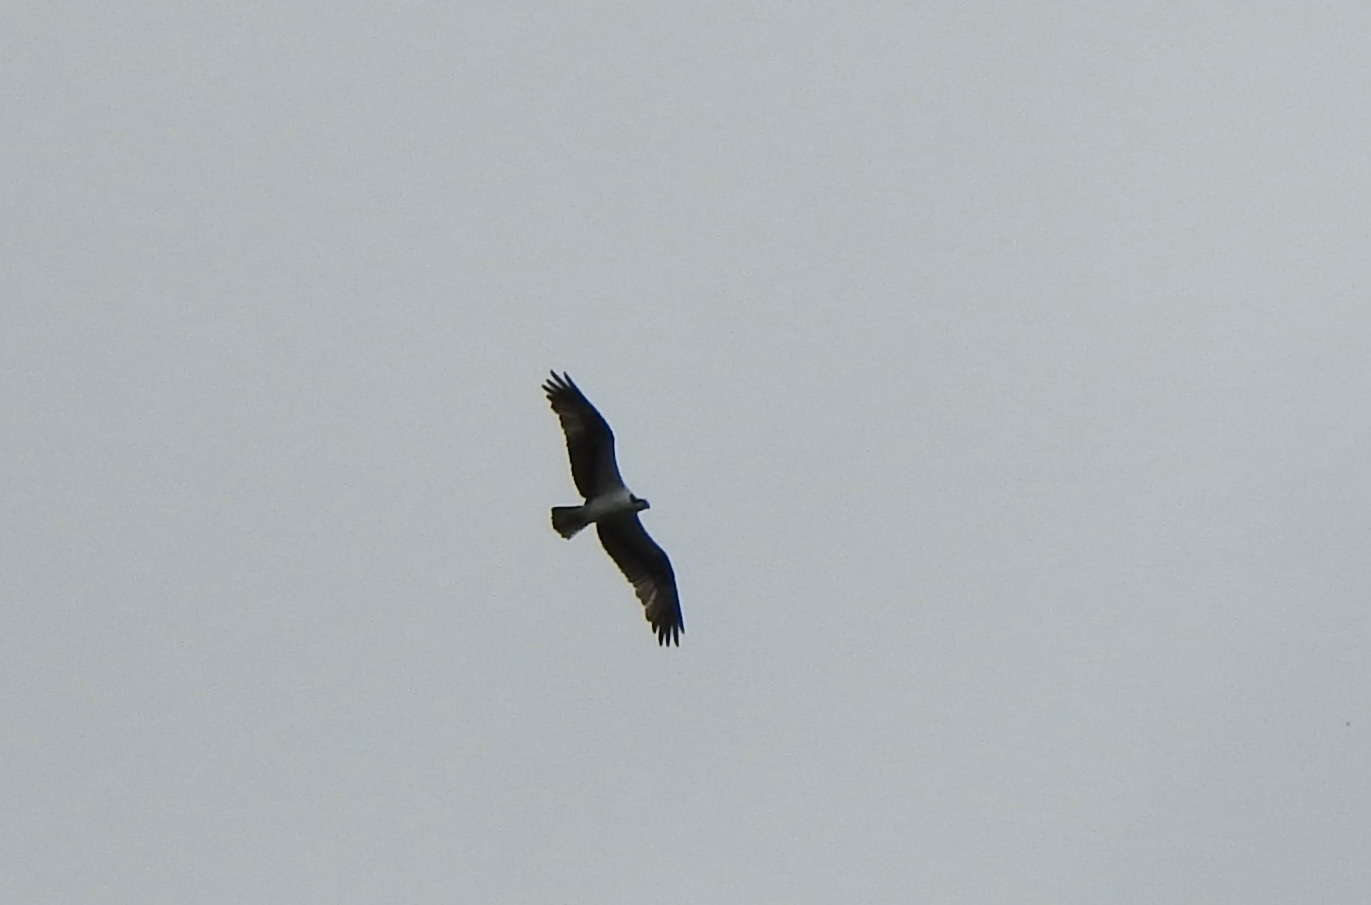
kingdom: Animalia
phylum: Chordata
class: Aves
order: Accipitriformes
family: Pandionidae
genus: Pandion
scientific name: Pandion haliaetus
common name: Osprey
